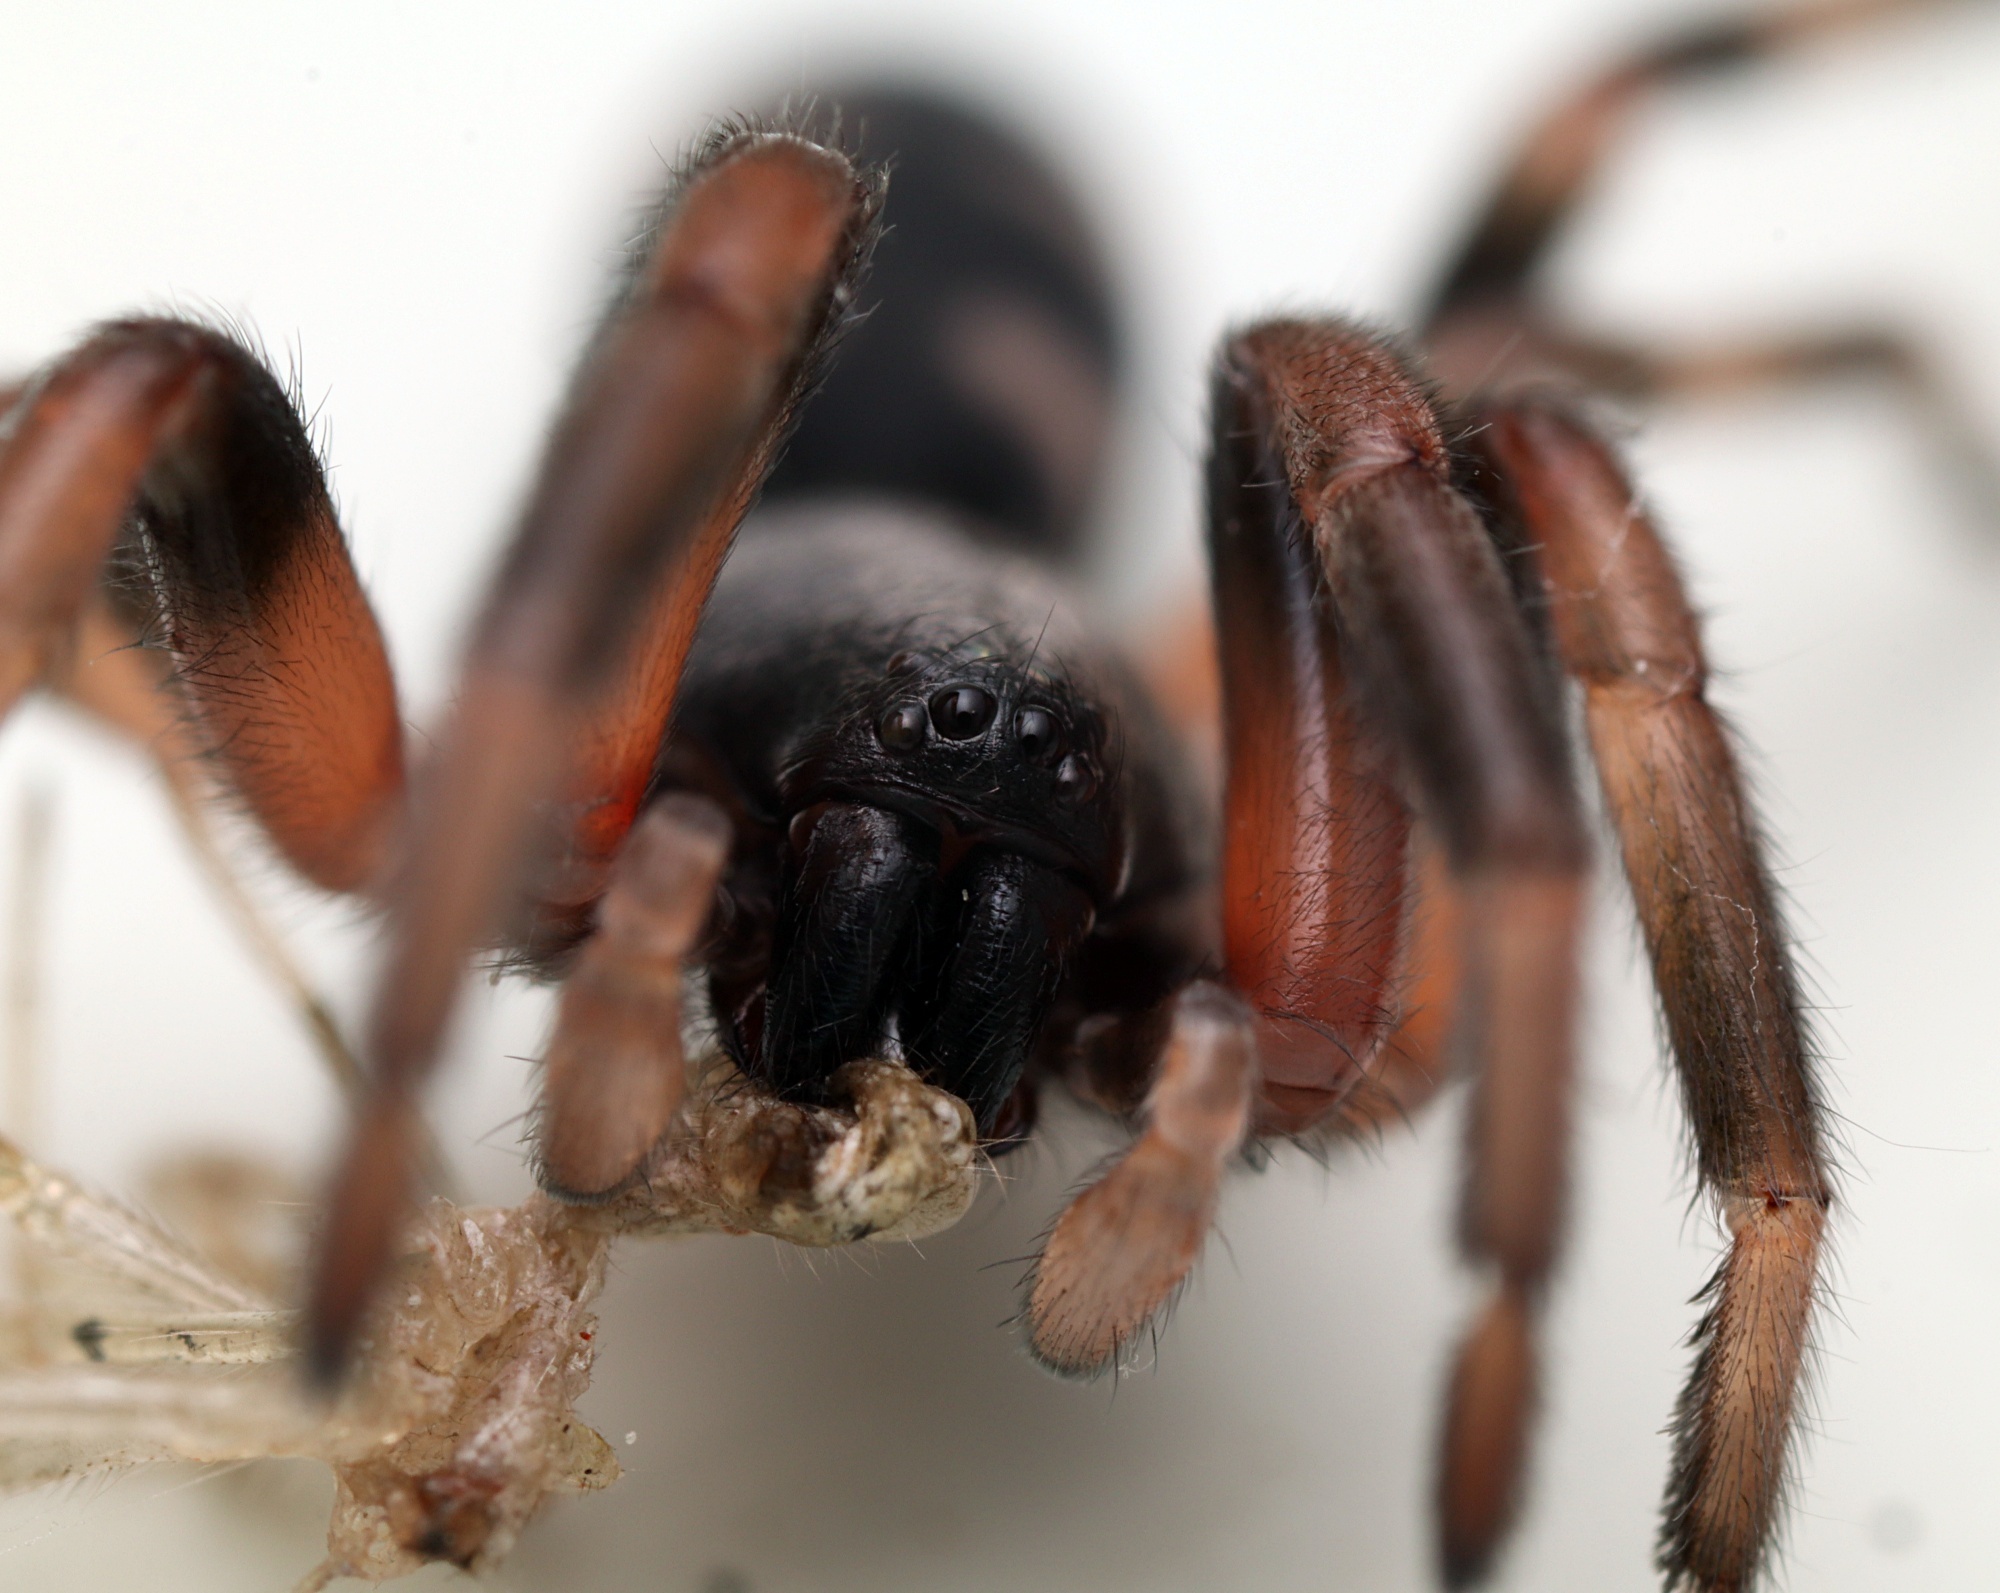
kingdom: Animalia
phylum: Arthropoda
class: Arachnida
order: Araneae
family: Lamponidae
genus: Lampona
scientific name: Lampona murina
